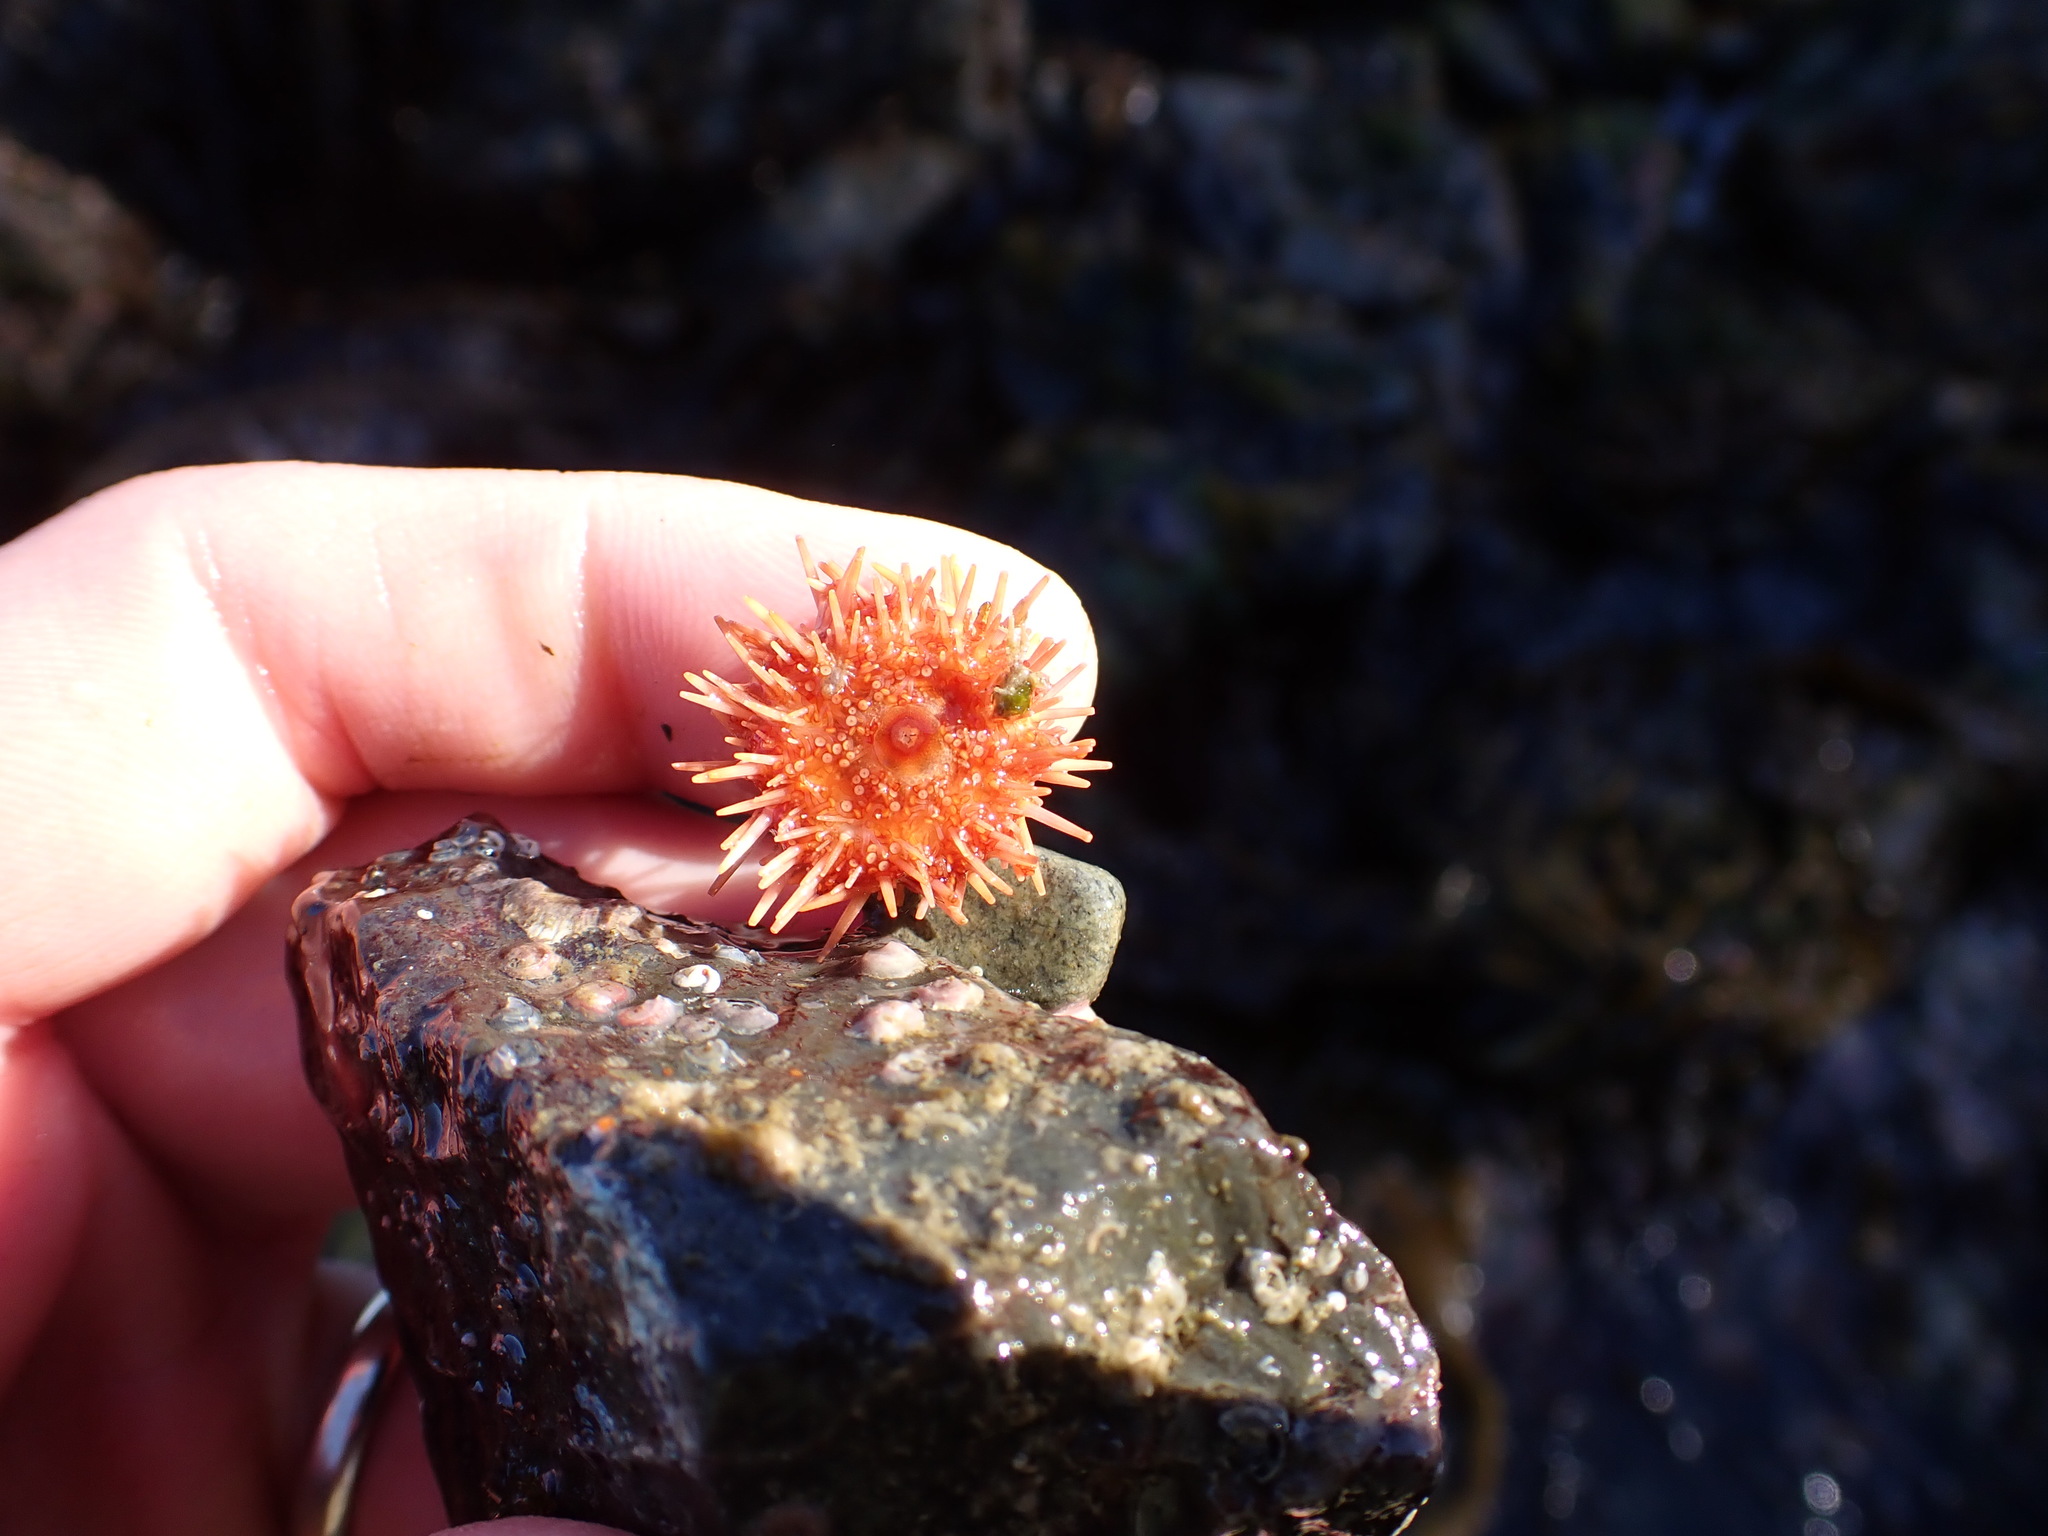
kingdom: Animalia
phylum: Echinodermata
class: Echinoidea
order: Camarodonta
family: Strongylocentrotidae
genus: Mesocentrotus
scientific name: Mesocentrotus franciscanus
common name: Red sea urchin
